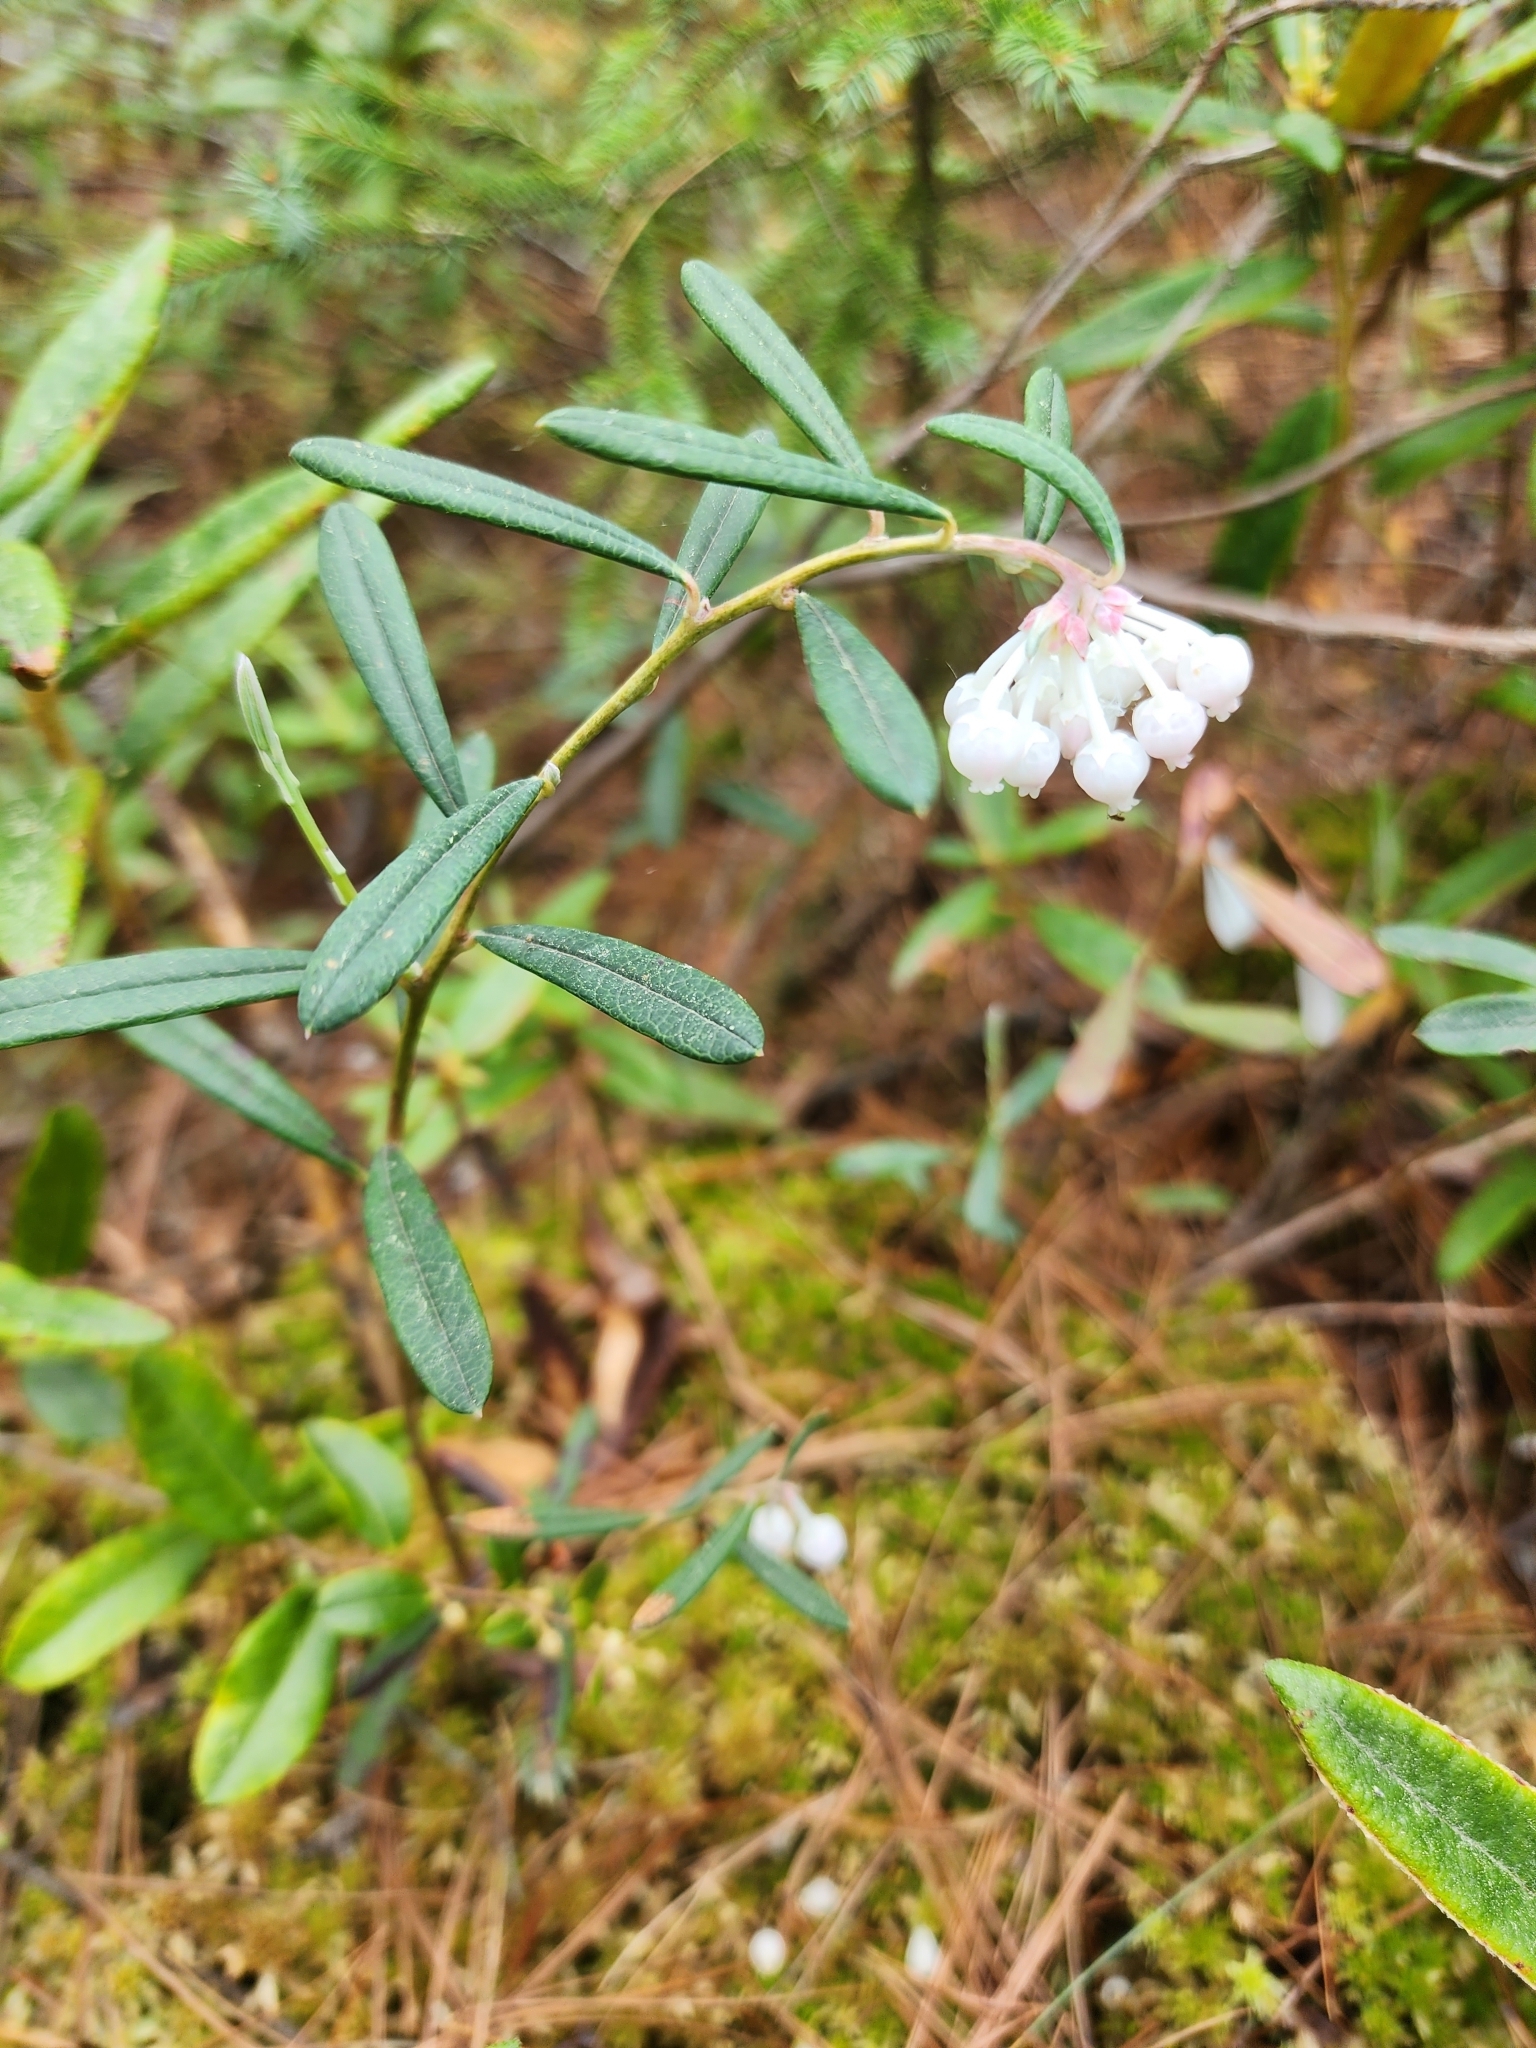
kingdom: Plantae
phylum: Tracheophyta
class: Magnoliopsida
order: Ericales
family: Ericaceae
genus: Andromeda
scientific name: Andromeda polifolia
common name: Bog-rosemary
